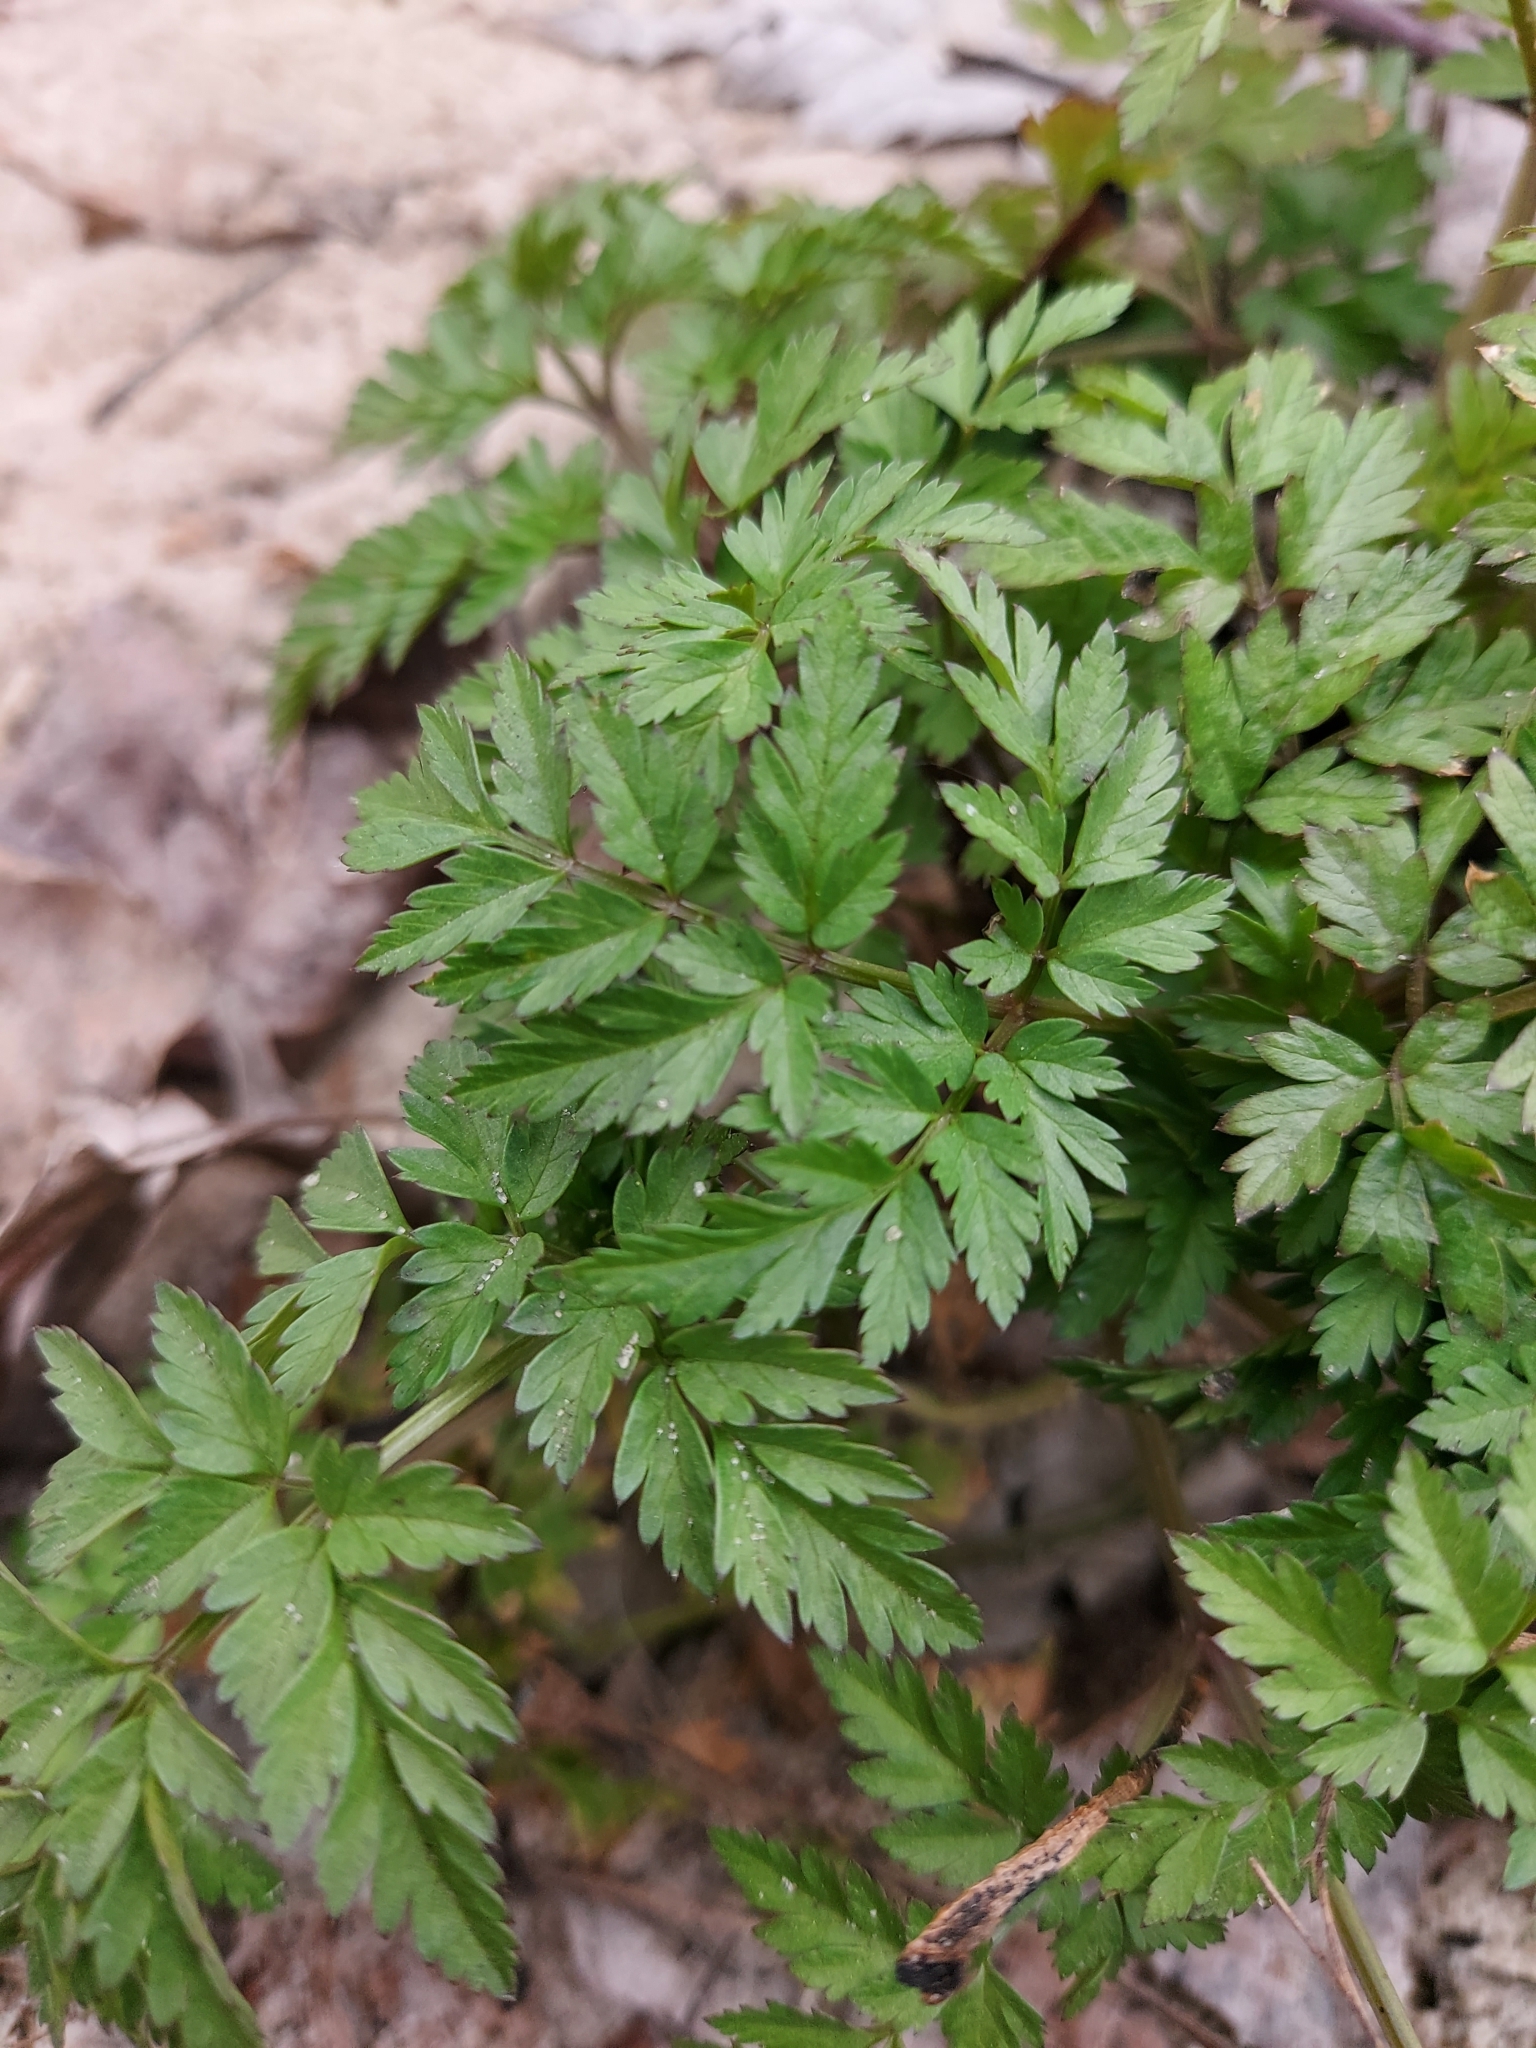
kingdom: Plantae
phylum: Tracheophyta
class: Magnoliopsida
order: Apiales
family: Apiaceae
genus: Anthriscus
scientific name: Anthriscus sylvestris
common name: Cow parsley
